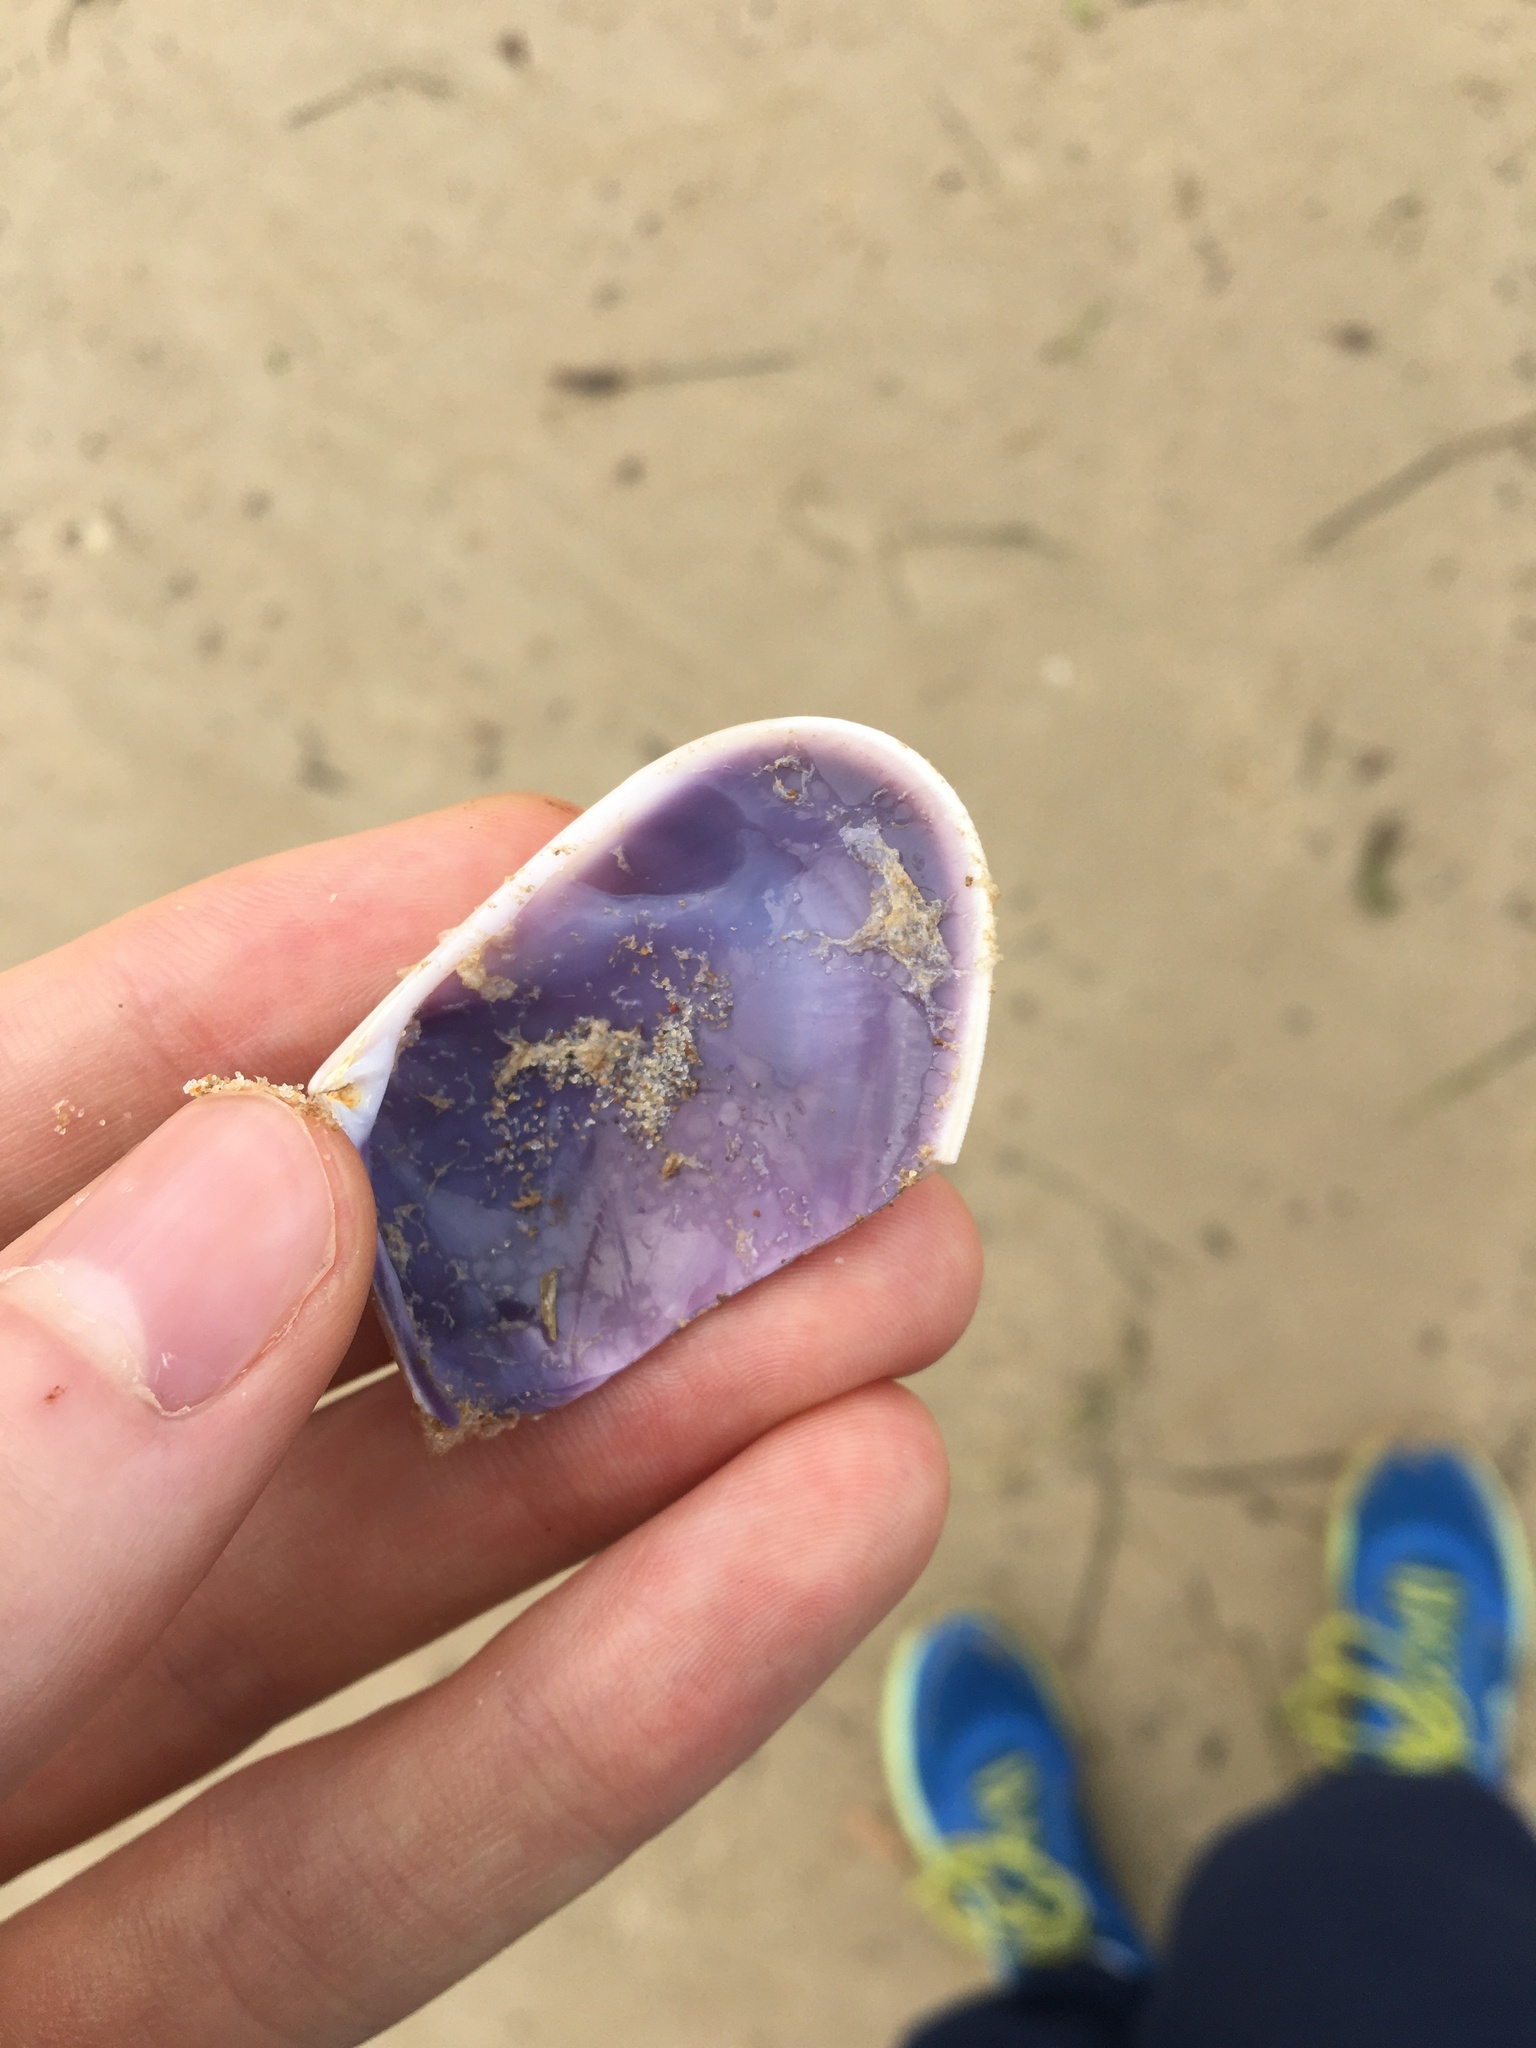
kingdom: Animalia
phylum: Mollusca
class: Bivalvia
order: Cardiida
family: Donacidae
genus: Latona
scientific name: Latona deltoides
